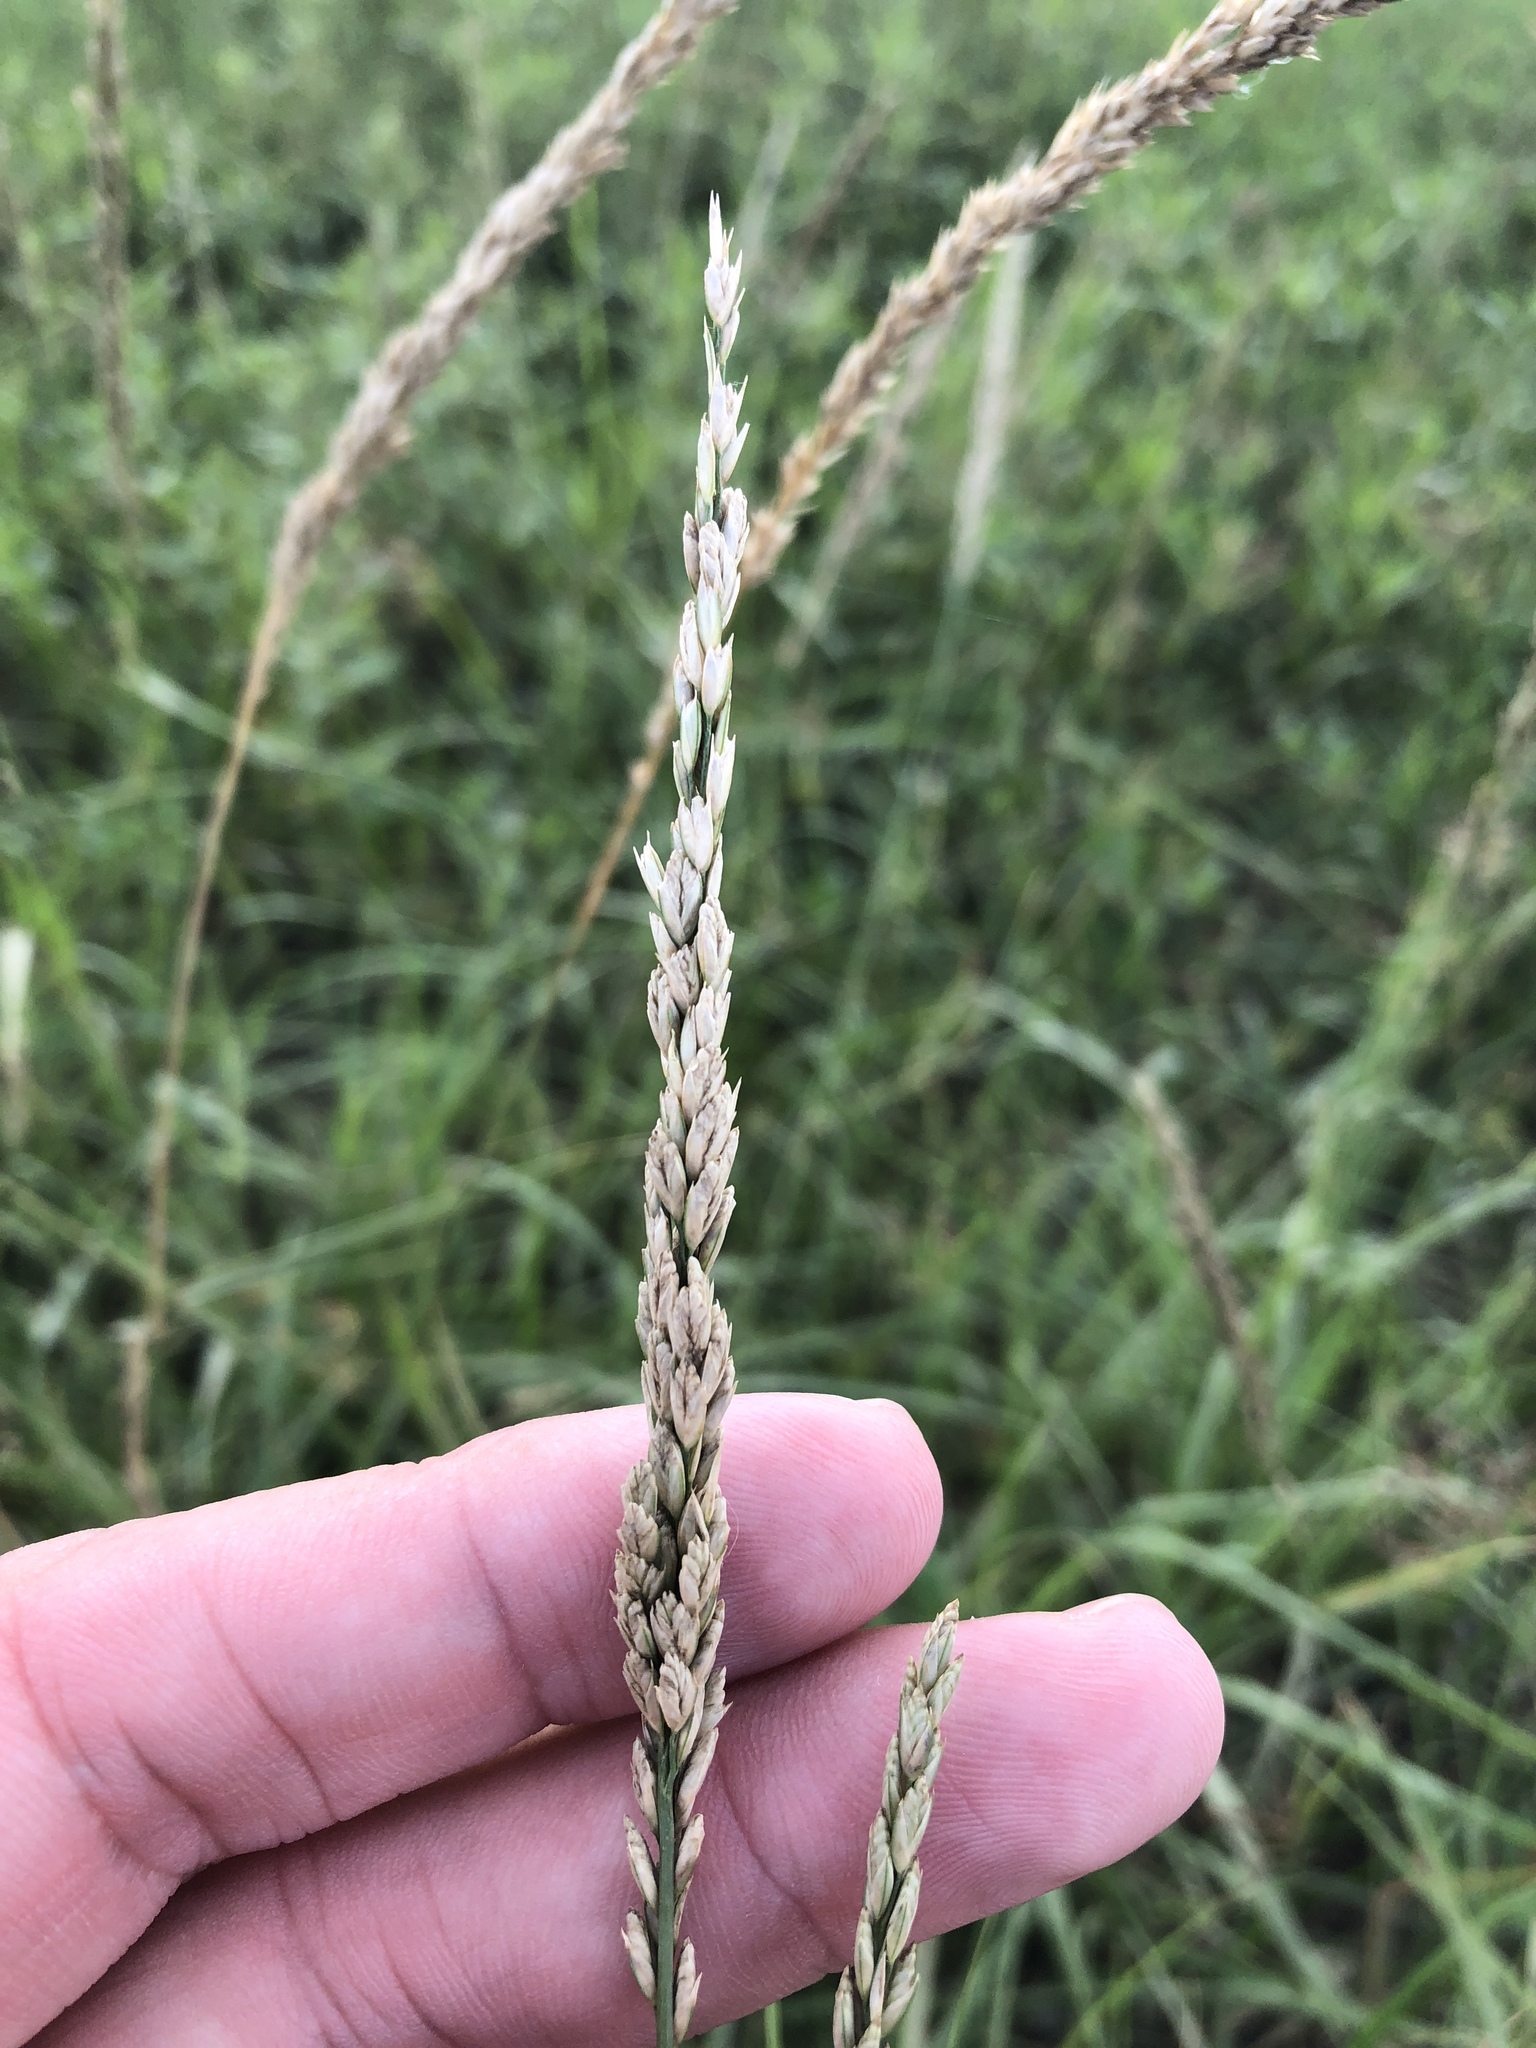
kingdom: Plantae
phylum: Tracheophyta
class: Liliopsida
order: Poales
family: Poaceae
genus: Tridens
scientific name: Tridens albescens
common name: White tridens
